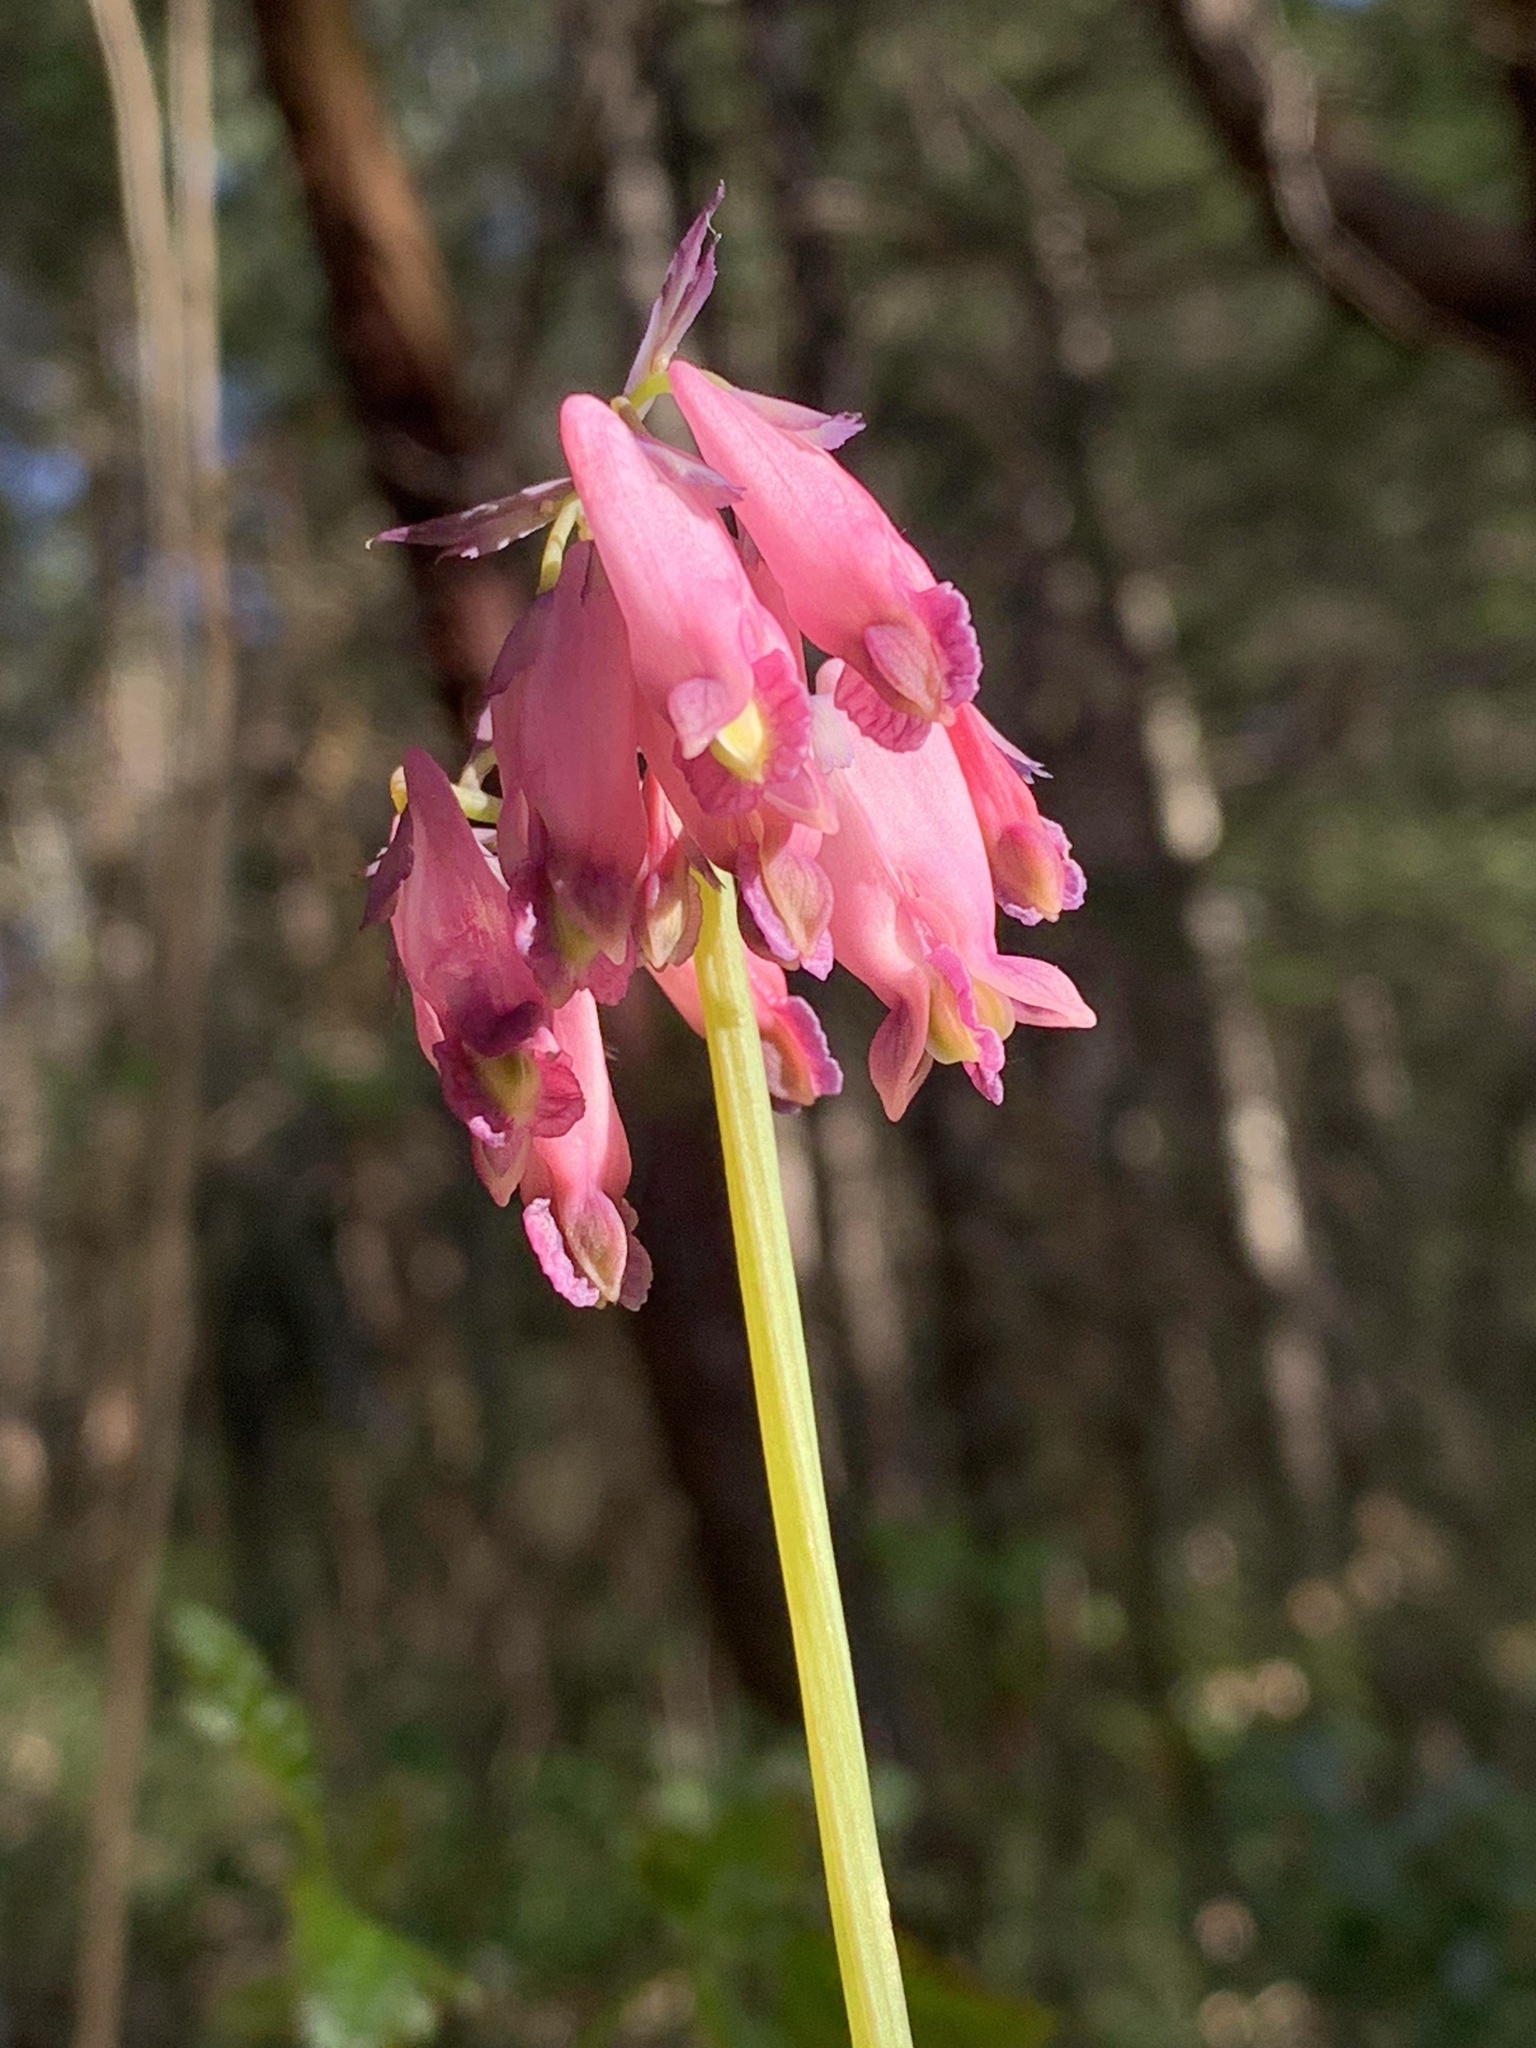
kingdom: Plantae
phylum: Tracheophyta
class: Magnoliopsida
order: Ranunculales
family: Papaveraceae
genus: Dicentra
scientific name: Dicentra formosa
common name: Bleeding-heart
